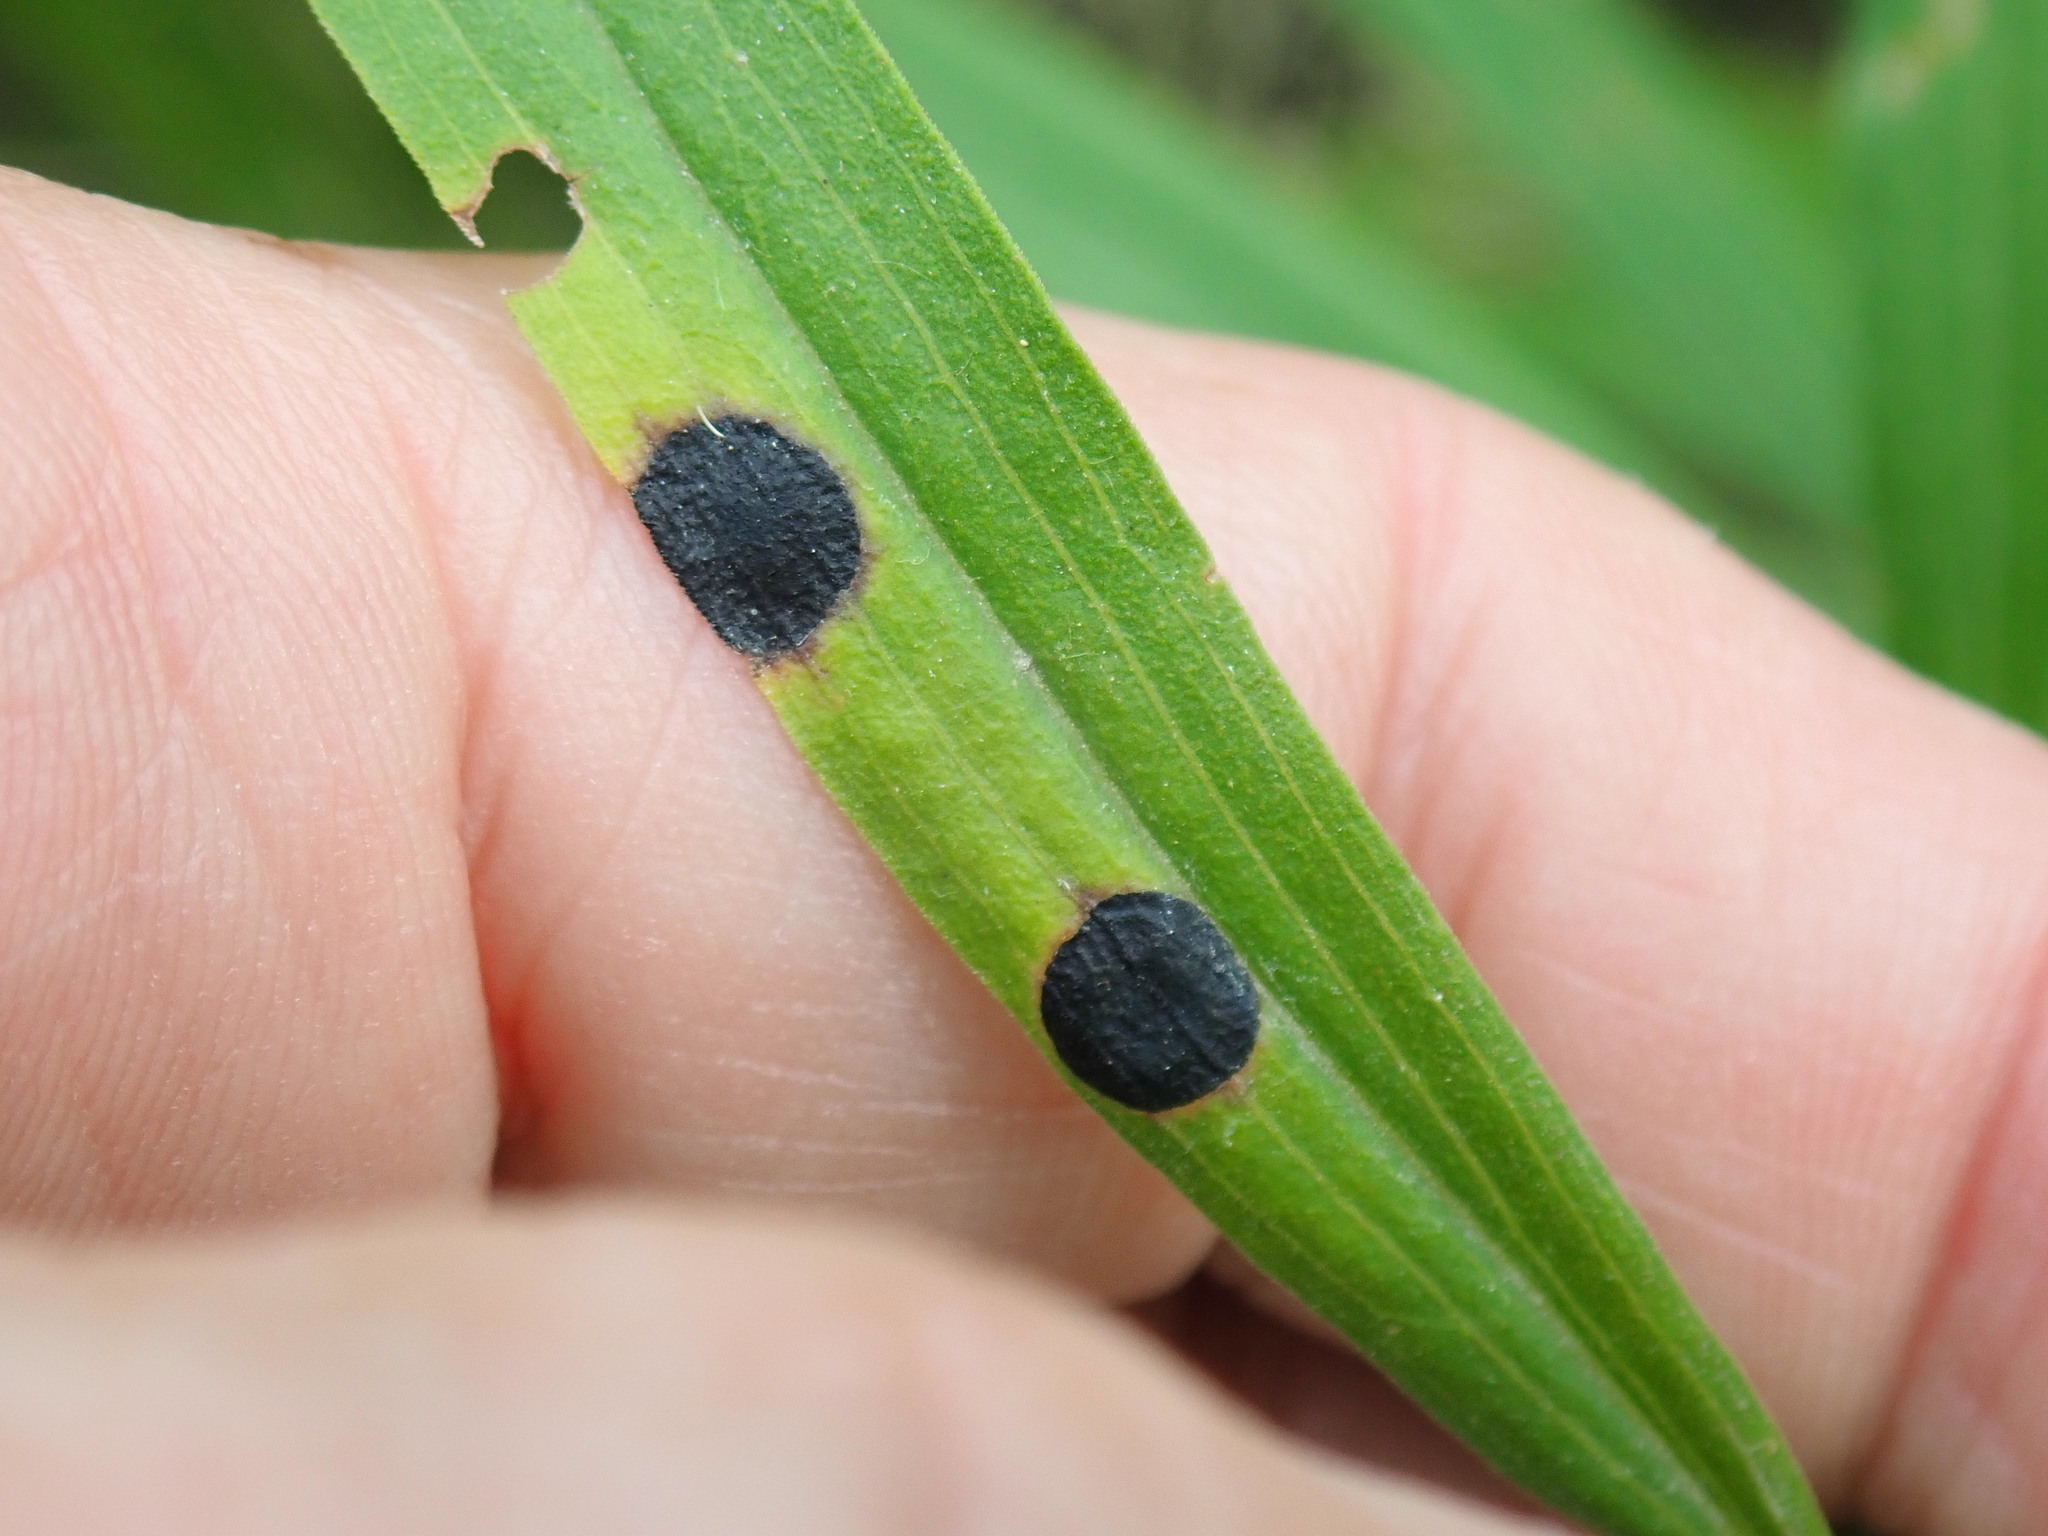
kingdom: Animalia
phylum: Arthropoda
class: Insecta
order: Diptera
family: Cecidomyiidae
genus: Asteromyia
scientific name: Asteromyia euthamiae
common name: Euthamia leaf gall midge
